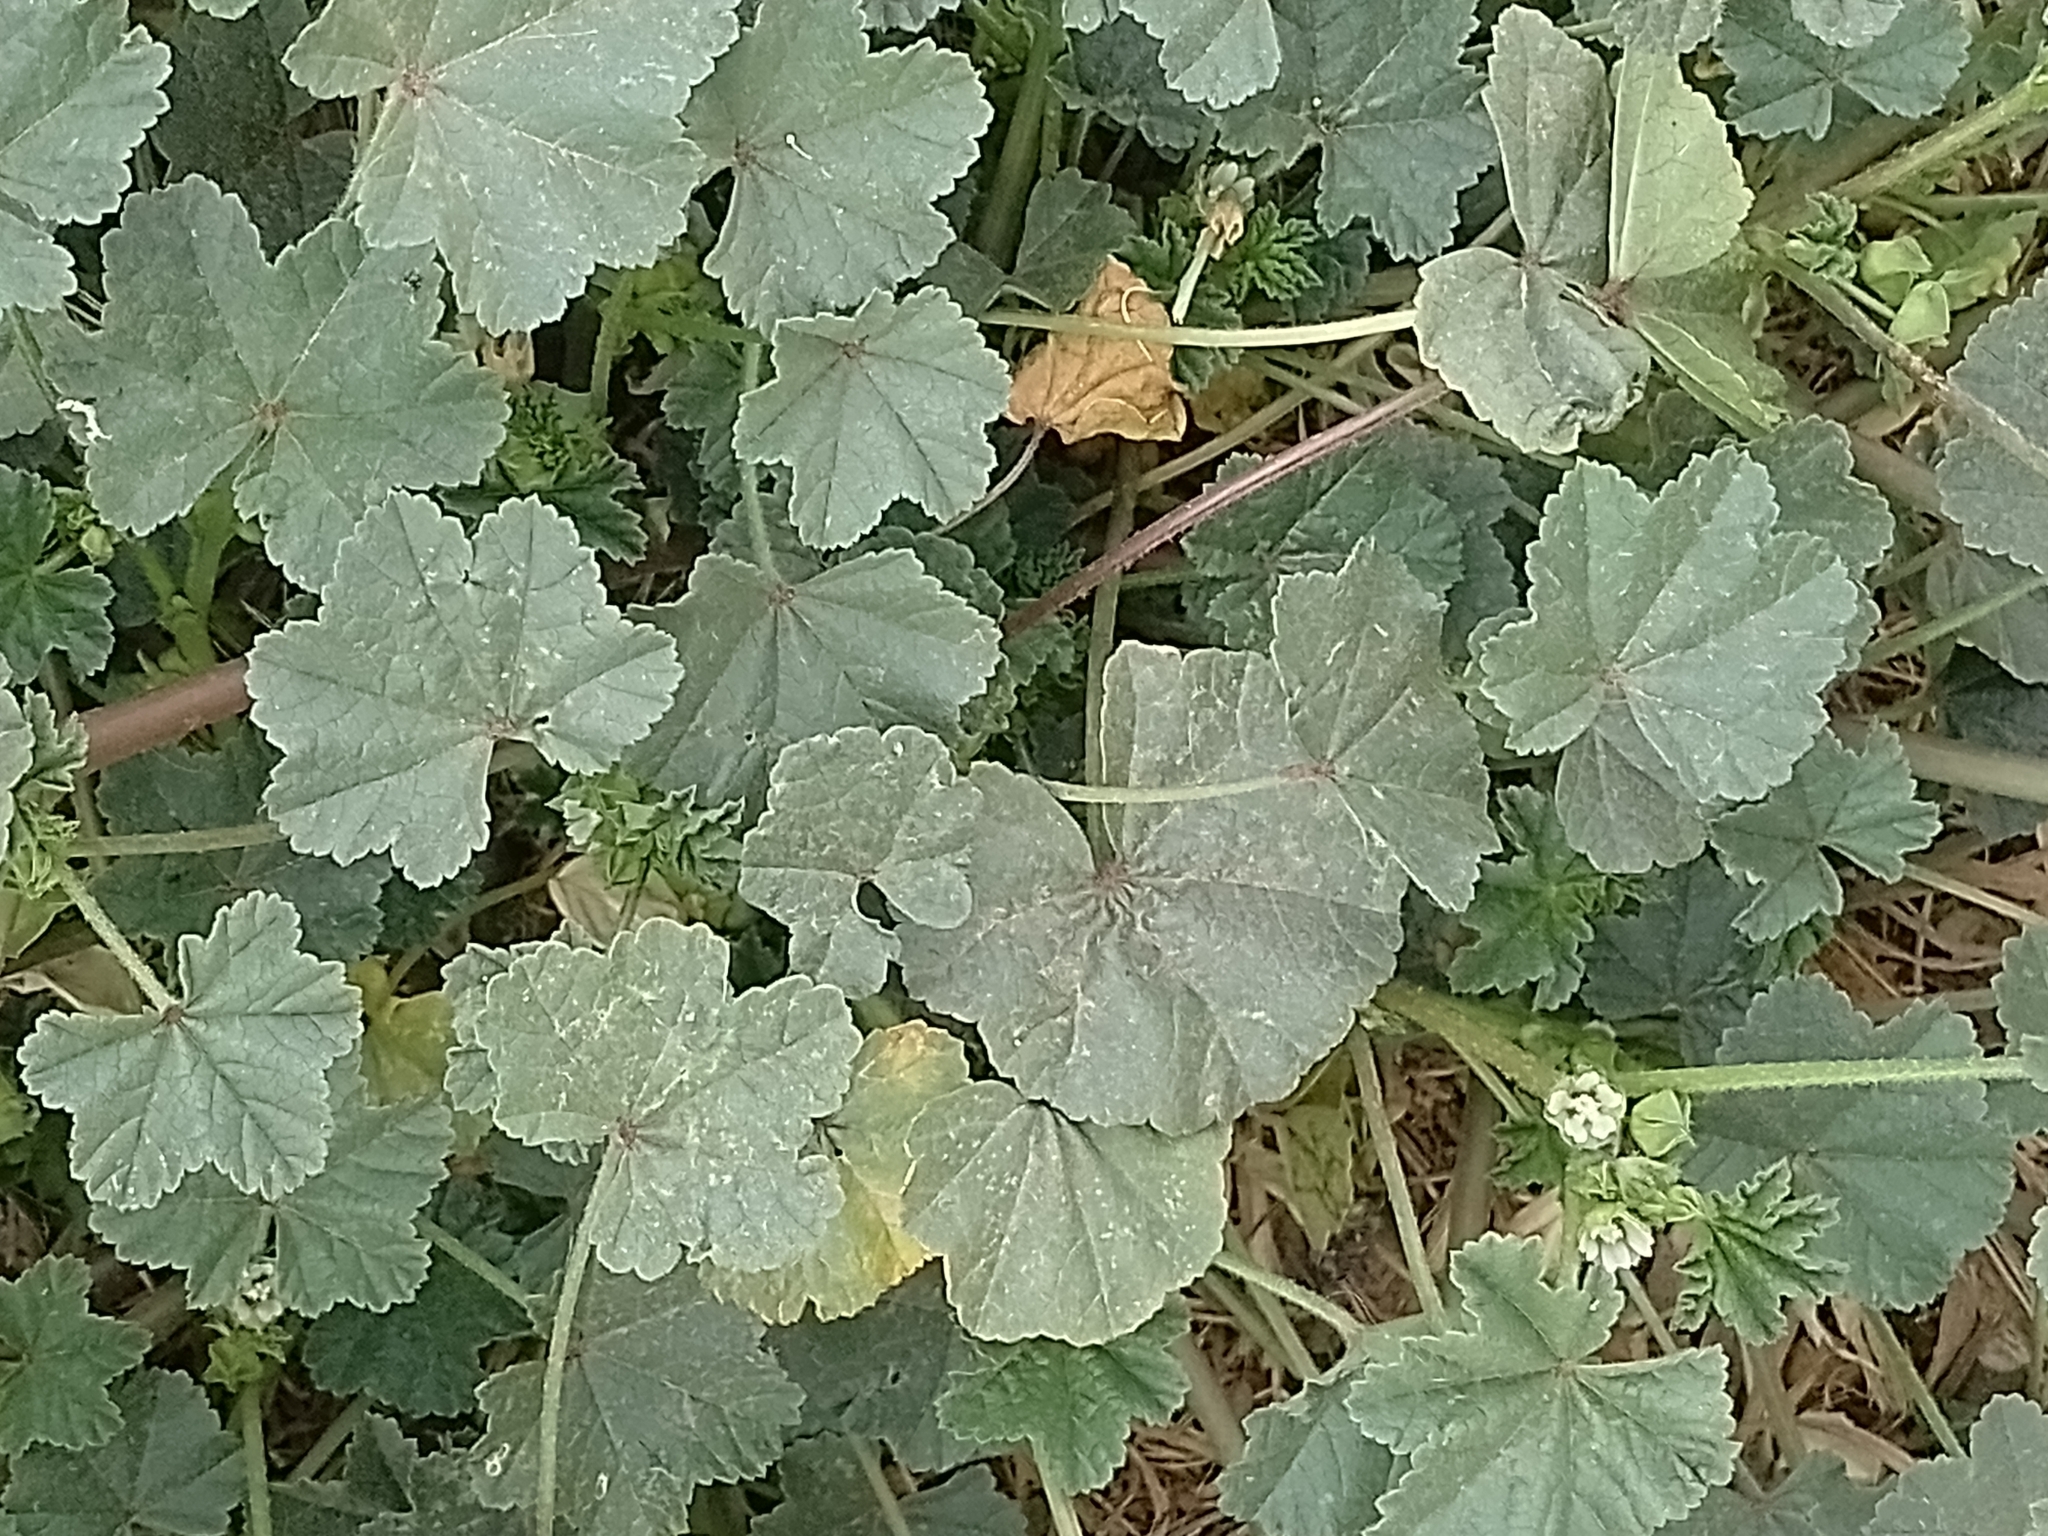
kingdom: Plantae
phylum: Tracheophyta
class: Magnoliopsida
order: Malvales
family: Malvaceae
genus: Malva
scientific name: Malva parviflora
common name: Least mallow
